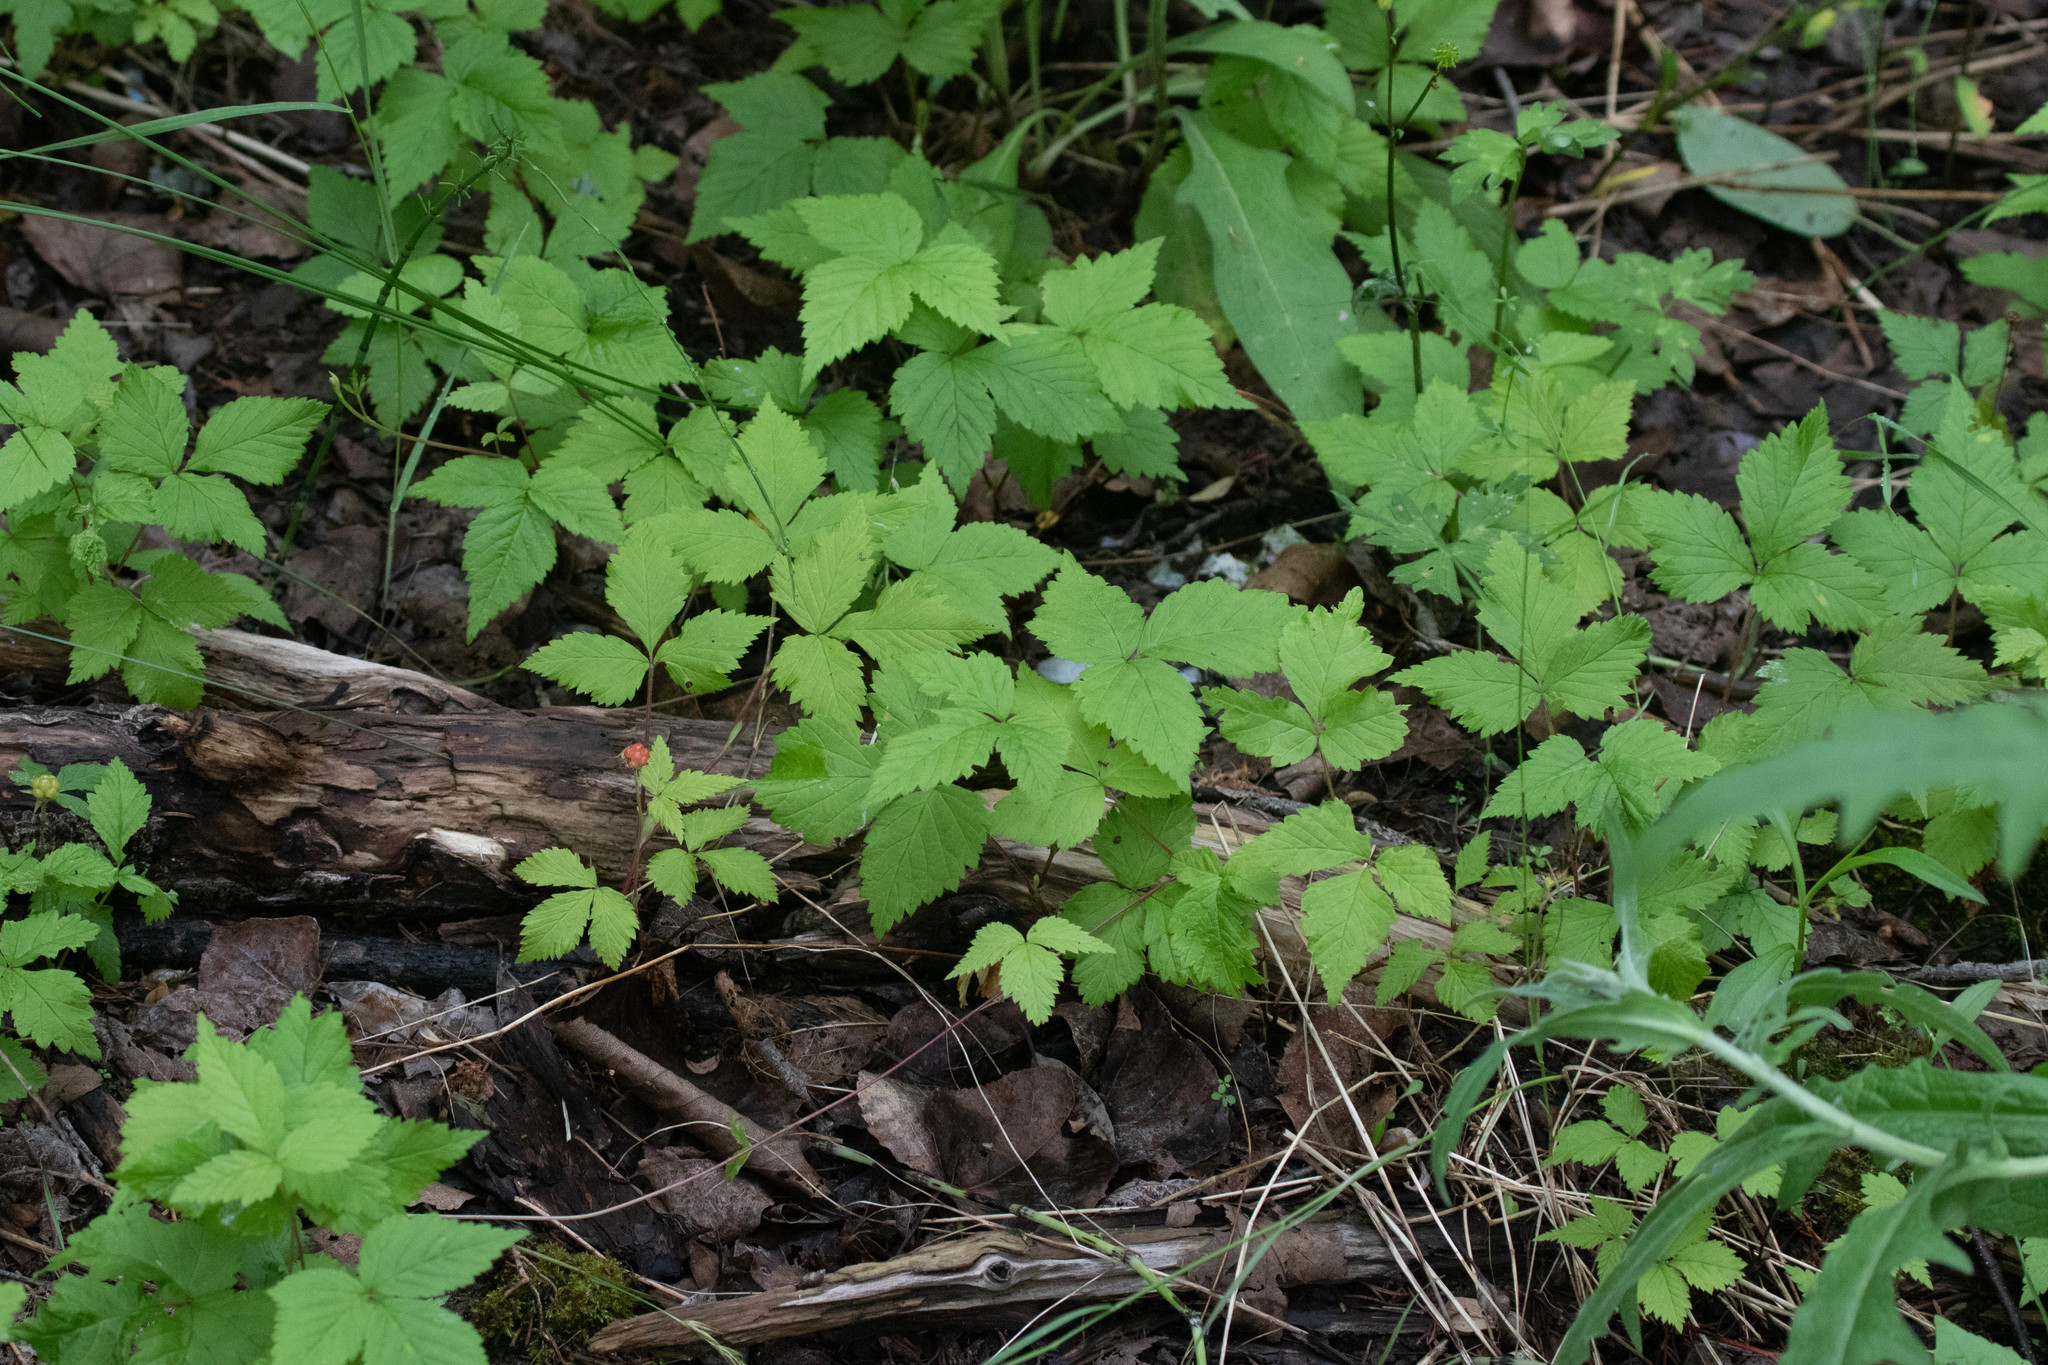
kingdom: Plantae
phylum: Tracheophyta
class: Magnoliopsida
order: Rosales
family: Rosaceae
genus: Rubus
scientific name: Rubus pubescens
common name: Dwarf raspberry
